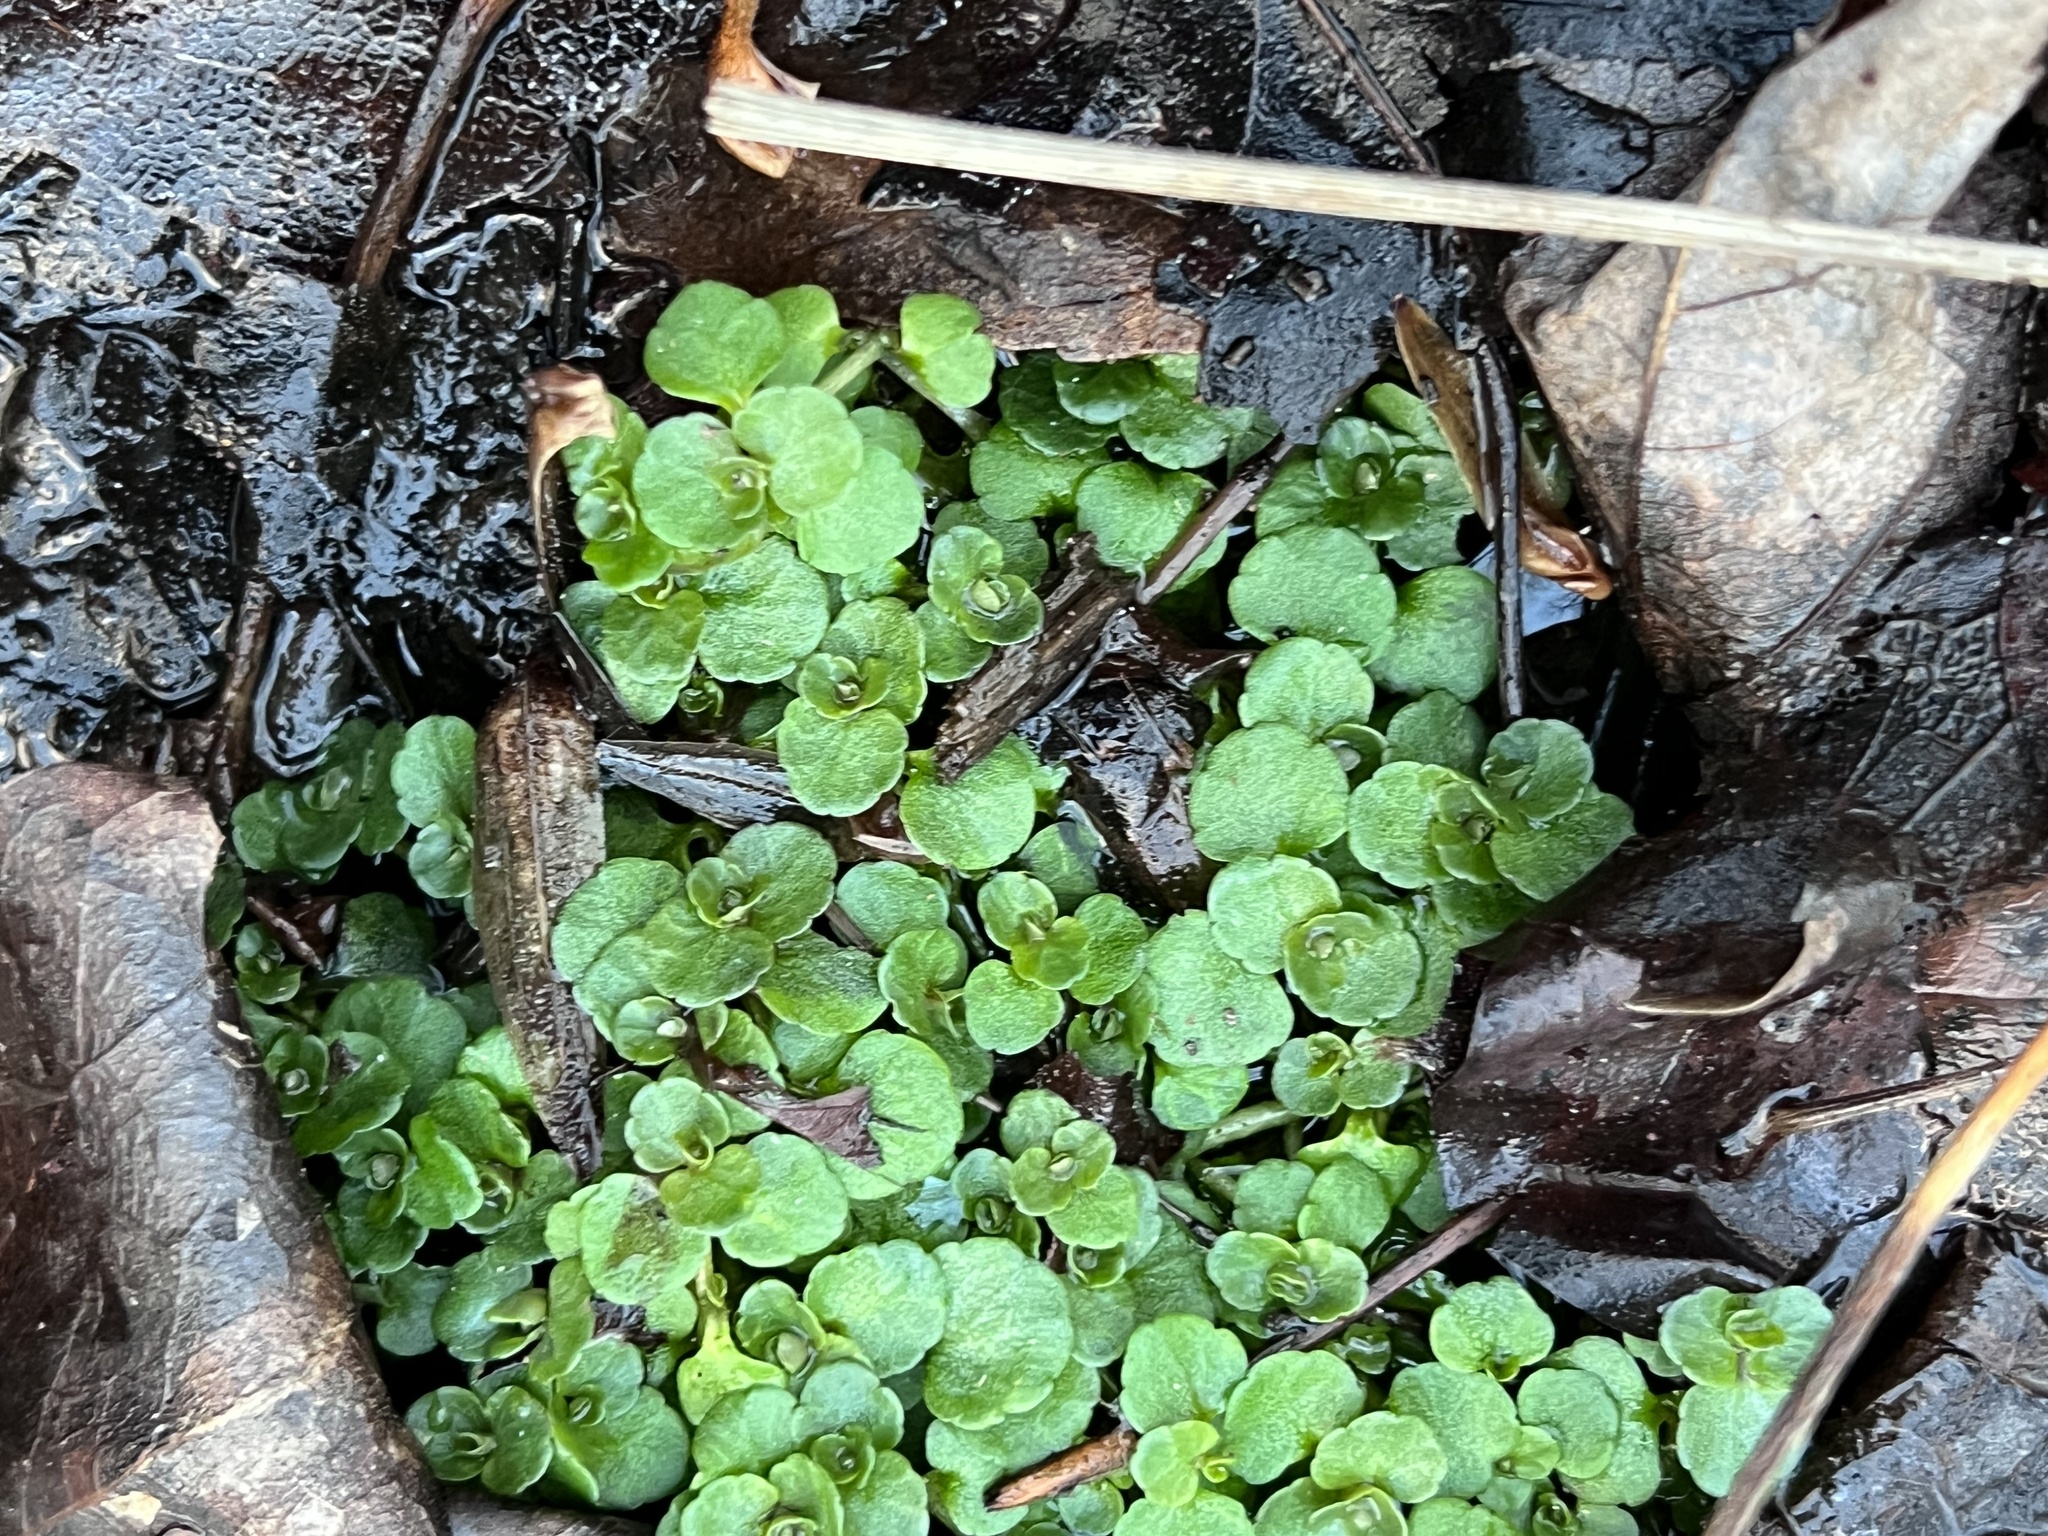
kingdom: Plantae
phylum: Tracheophyta
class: Magnoliopsida
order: Saxifragales
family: Saxifragaceae
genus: Chrysosplenium
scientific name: Chrysosplenium americanum
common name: American golden-saxifrage
